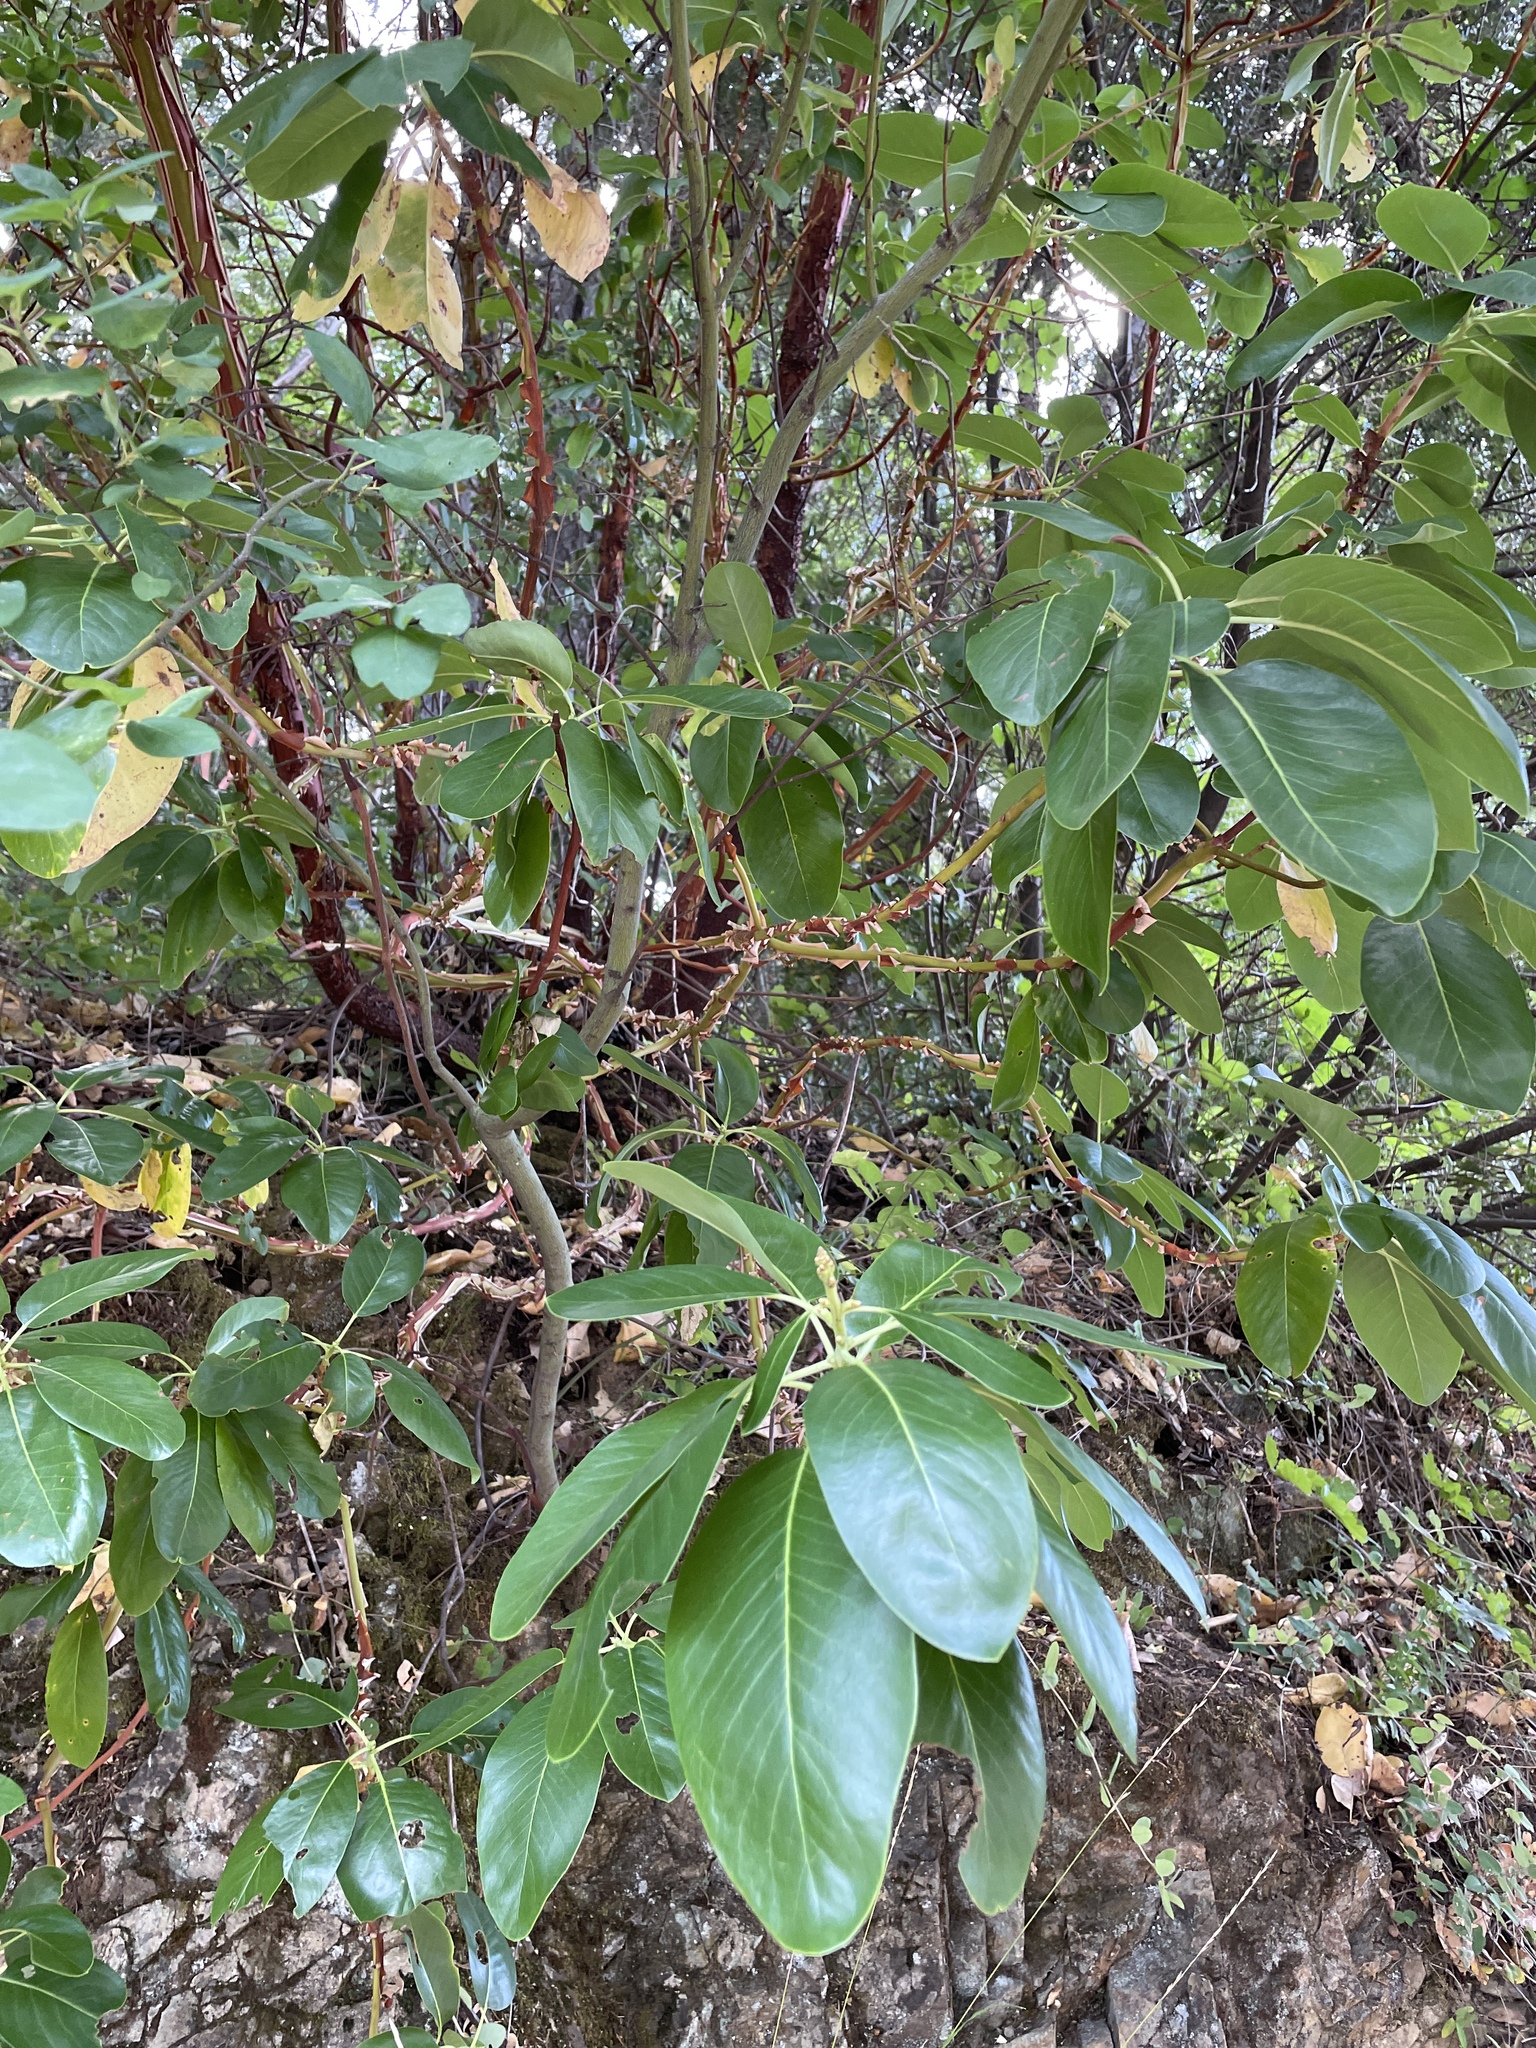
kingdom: Plantae
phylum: Tracheophyta
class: Magnoliopsida
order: Ericales
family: Ericaceae
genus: Arbutus
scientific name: Arbutus menziesii
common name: Pacific madrone
